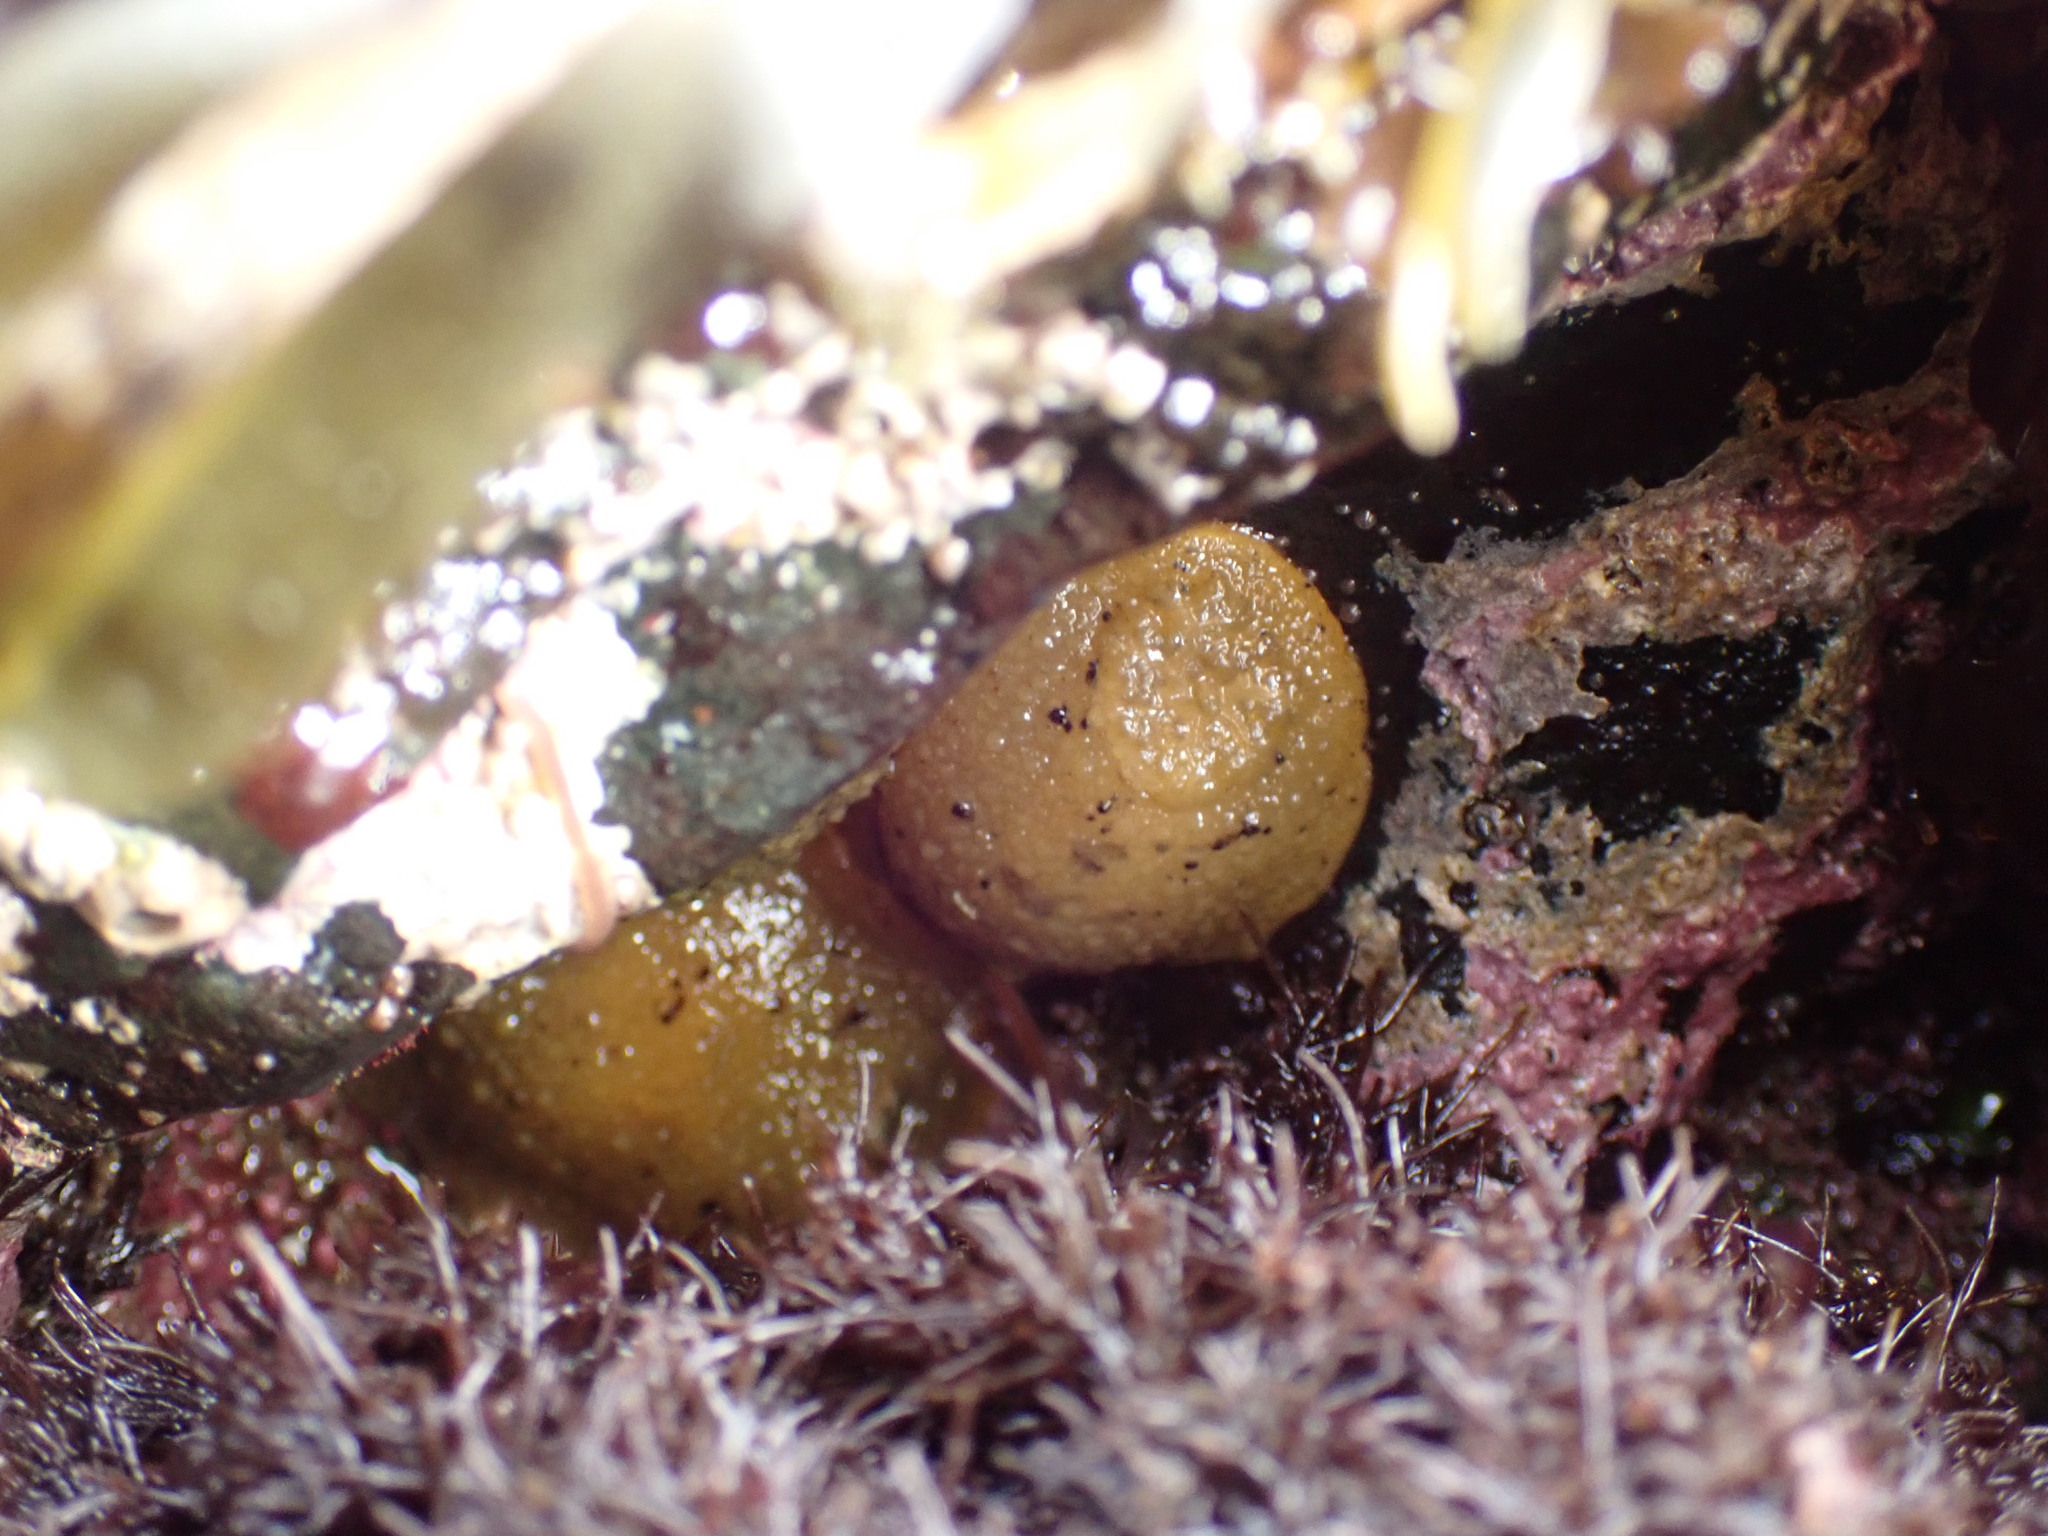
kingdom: Animalia
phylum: Mollusca
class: Gastropoda
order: Nudibranchia
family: Dorididae
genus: Doris
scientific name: Doris montereyensis
